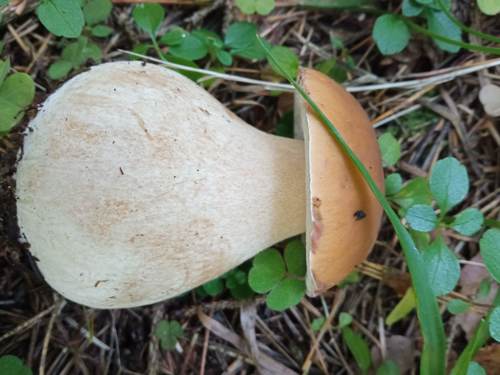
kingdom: Fungi
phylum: Basidiomycota
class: Agaricomycetes
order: Boletales
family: Boletaceae
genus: Boletus
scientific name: Boletus edulis
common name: Cep
